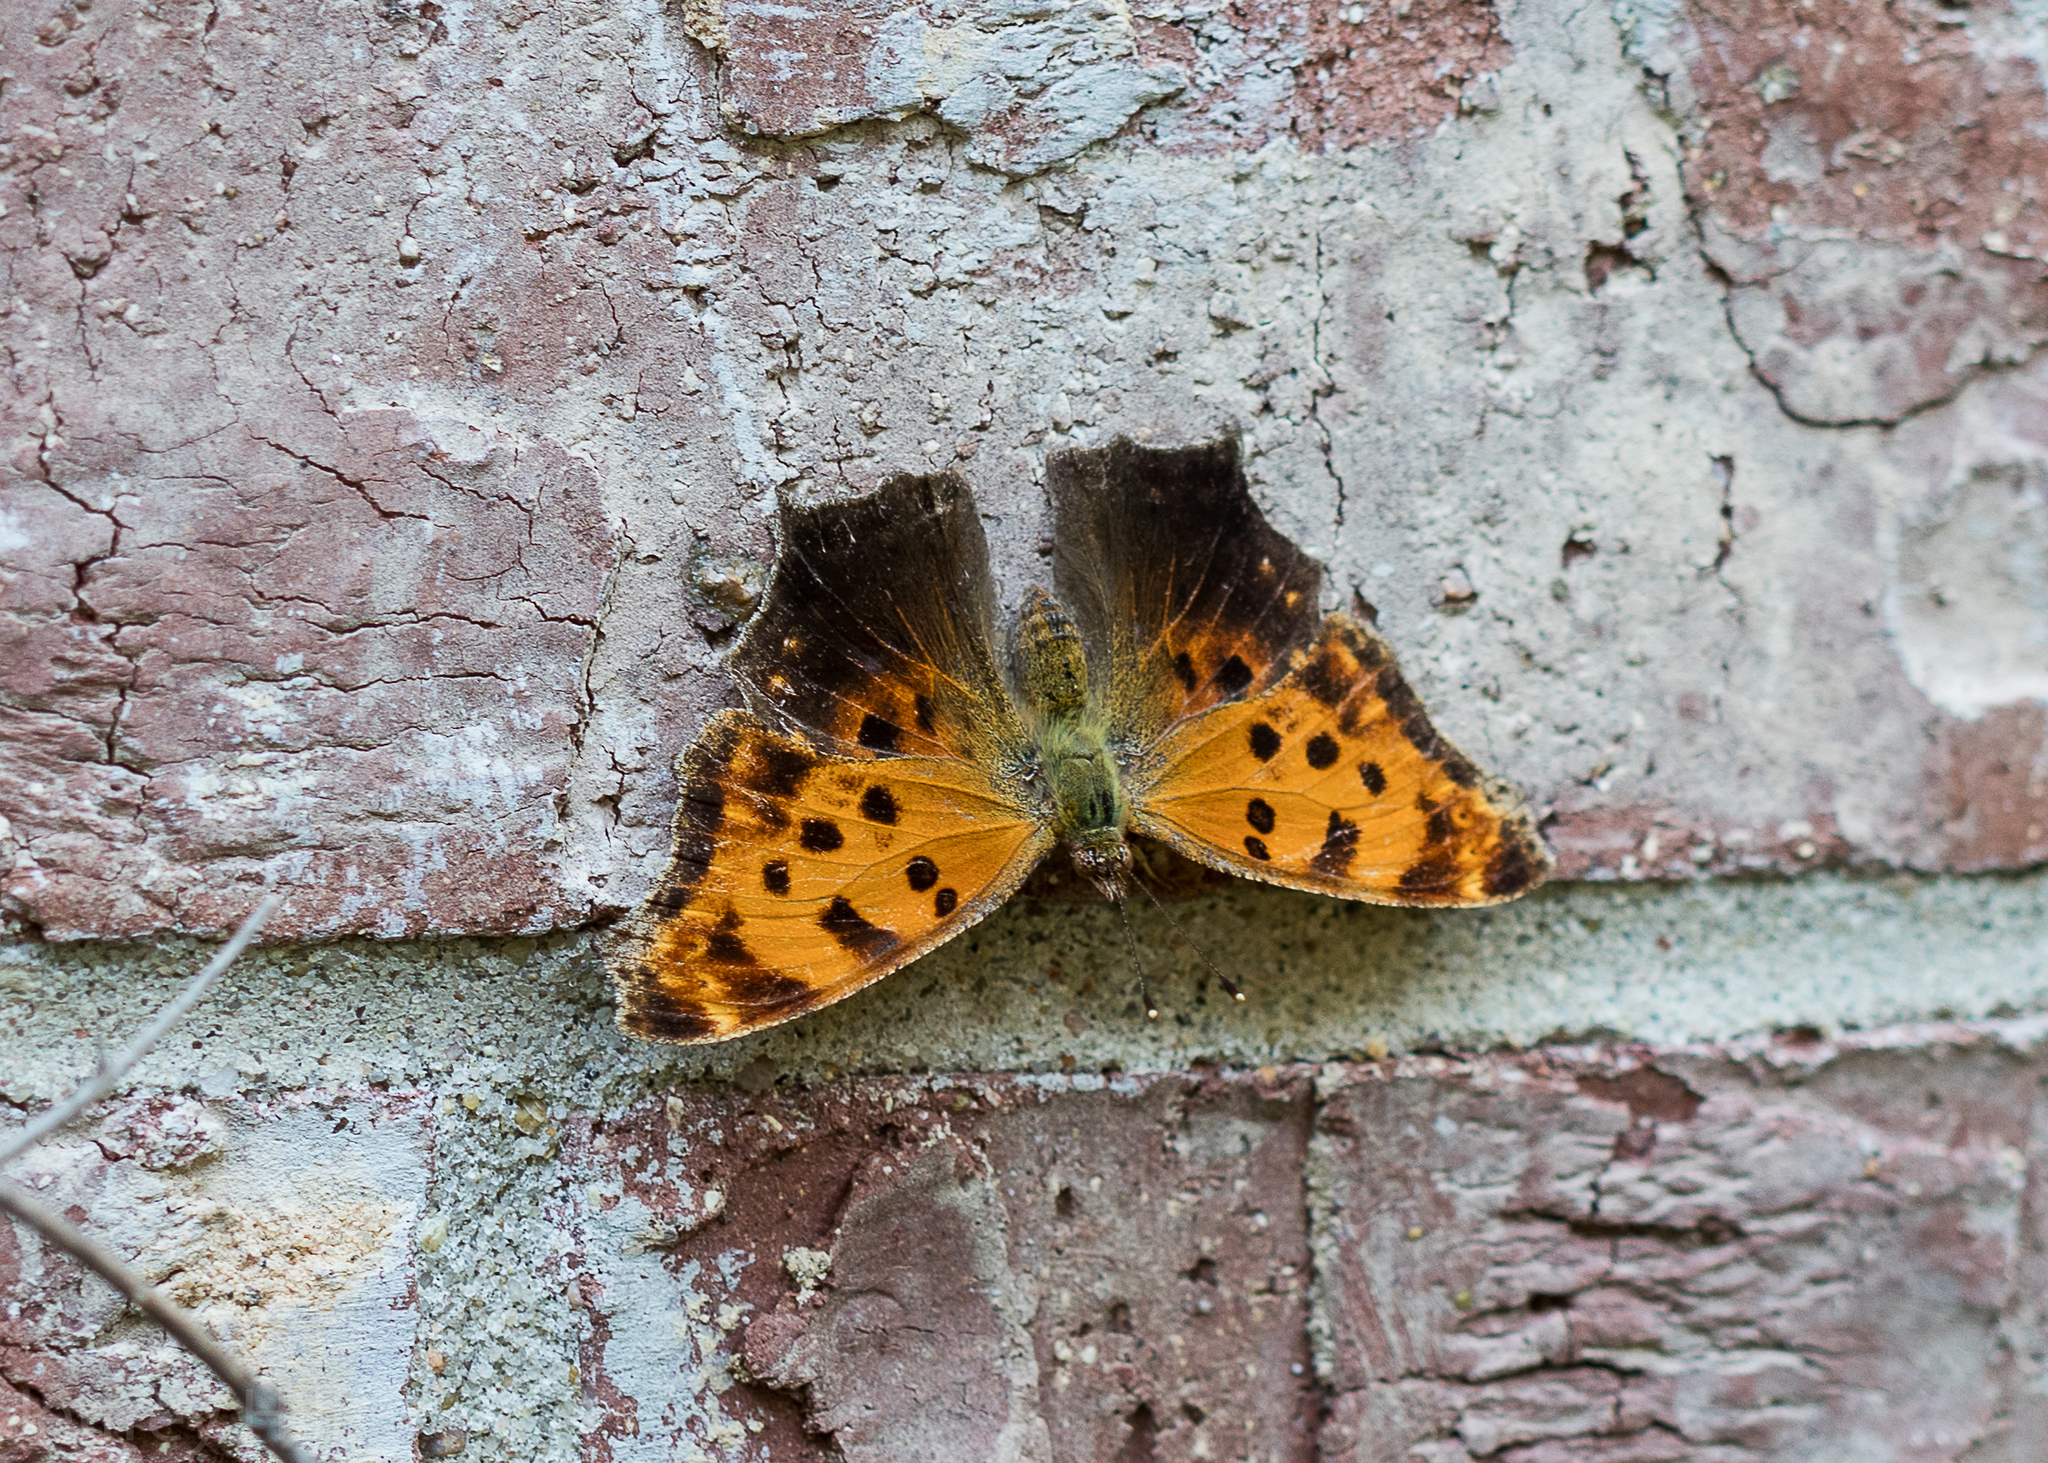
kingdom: Animalia
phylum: Arthropoda
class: Insecta
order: Lepidoptera
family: Nymphalidae
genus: Polygonia
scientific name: Polygonia comma
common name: Eastern comma
